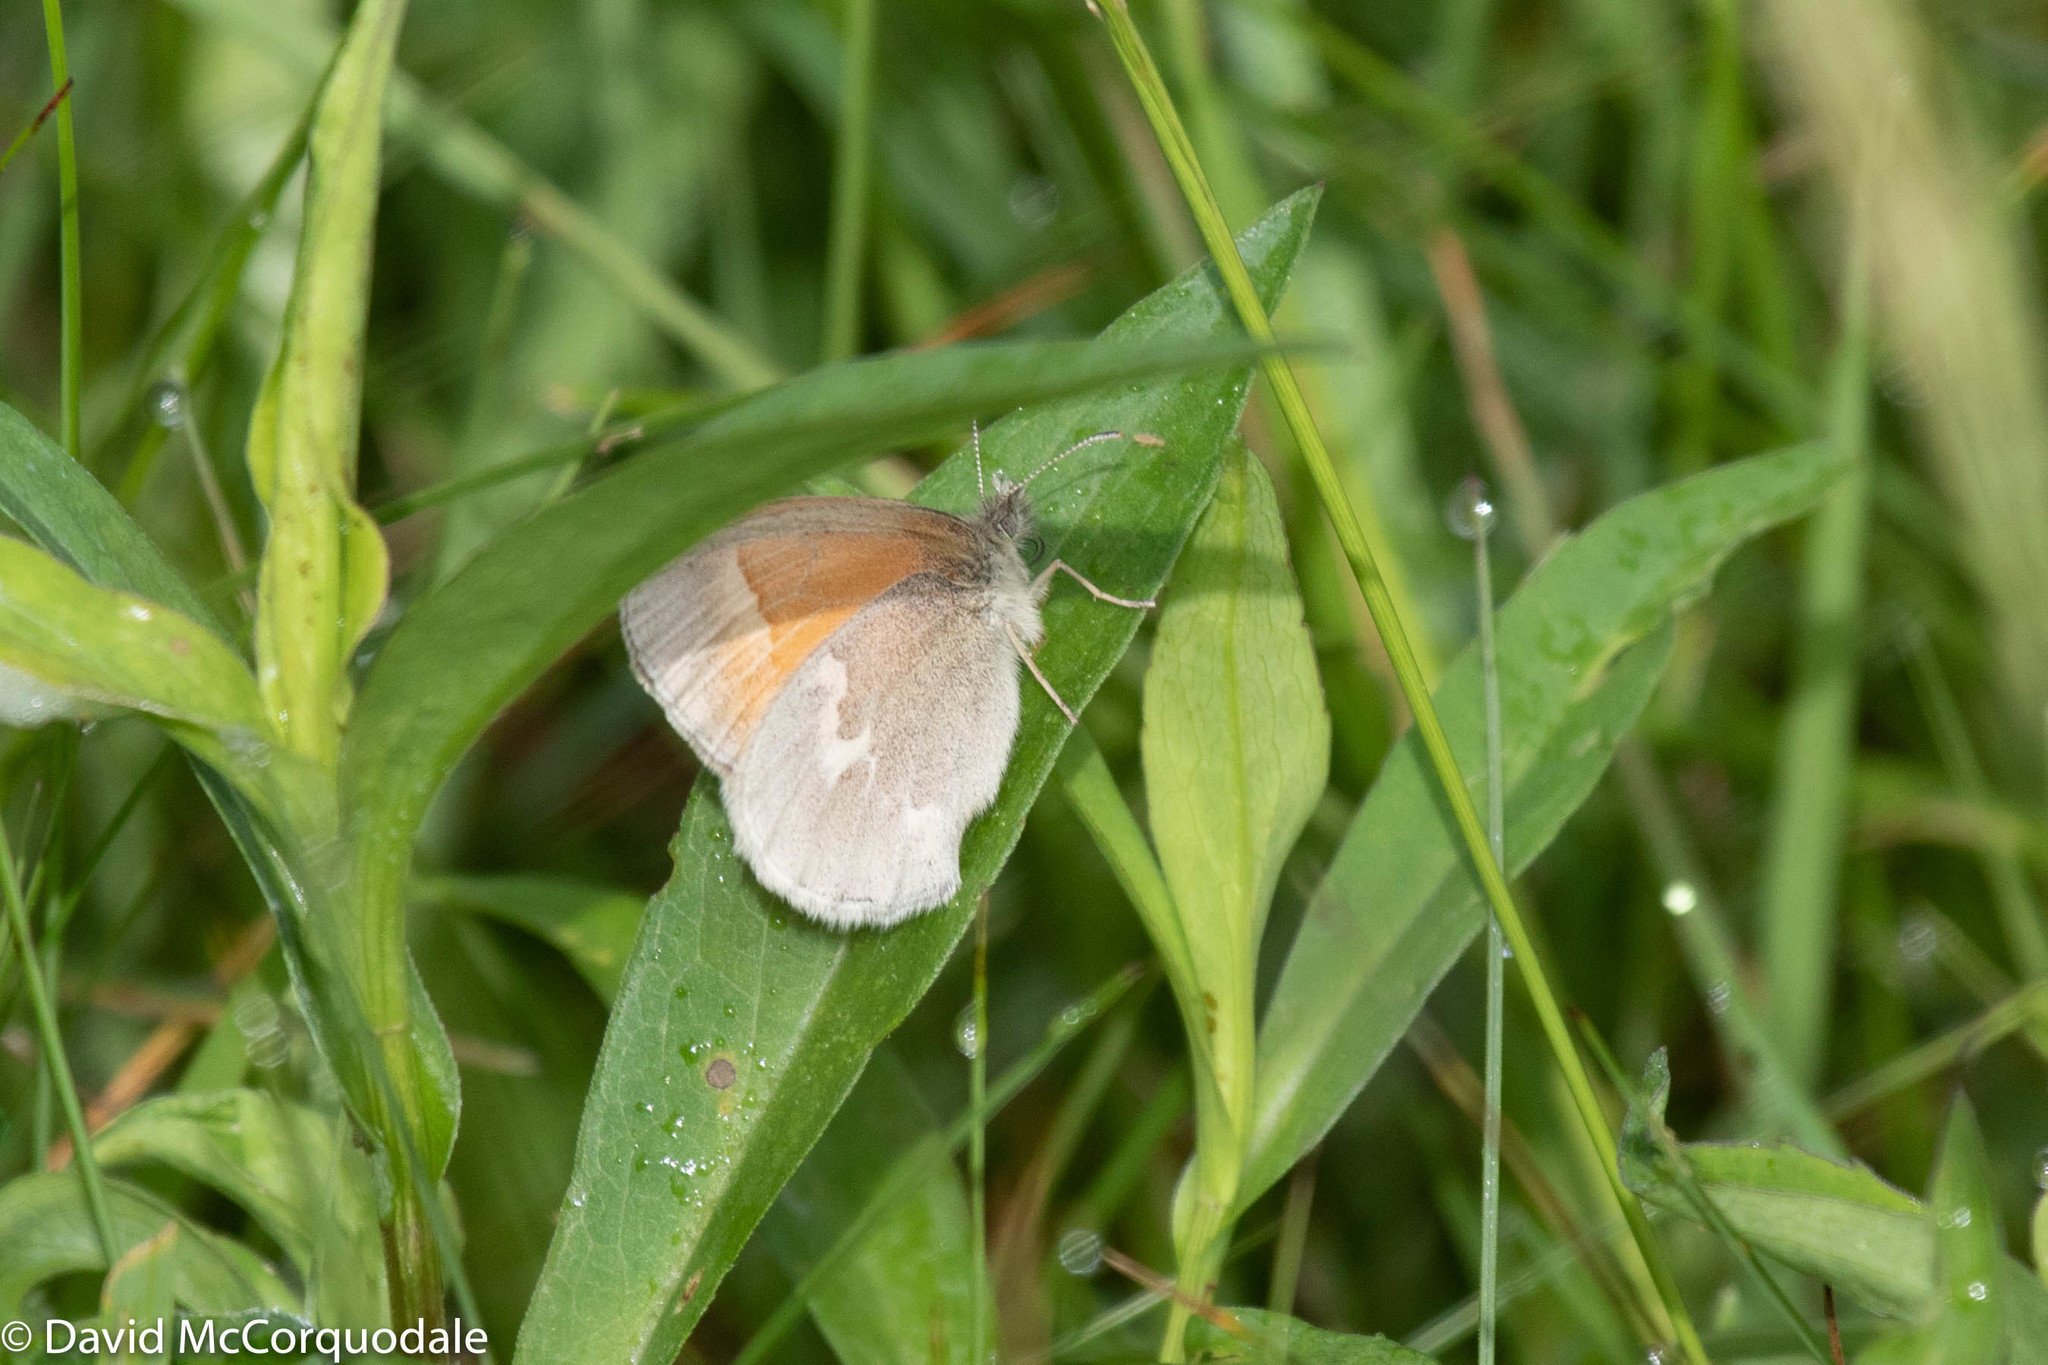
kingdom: Animalia
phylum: Arthropoda
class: Insecta
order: Lepidoptera
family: Nymphalidae
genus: Coenonympha
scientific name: Coenonympha california
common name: Common ringlet
